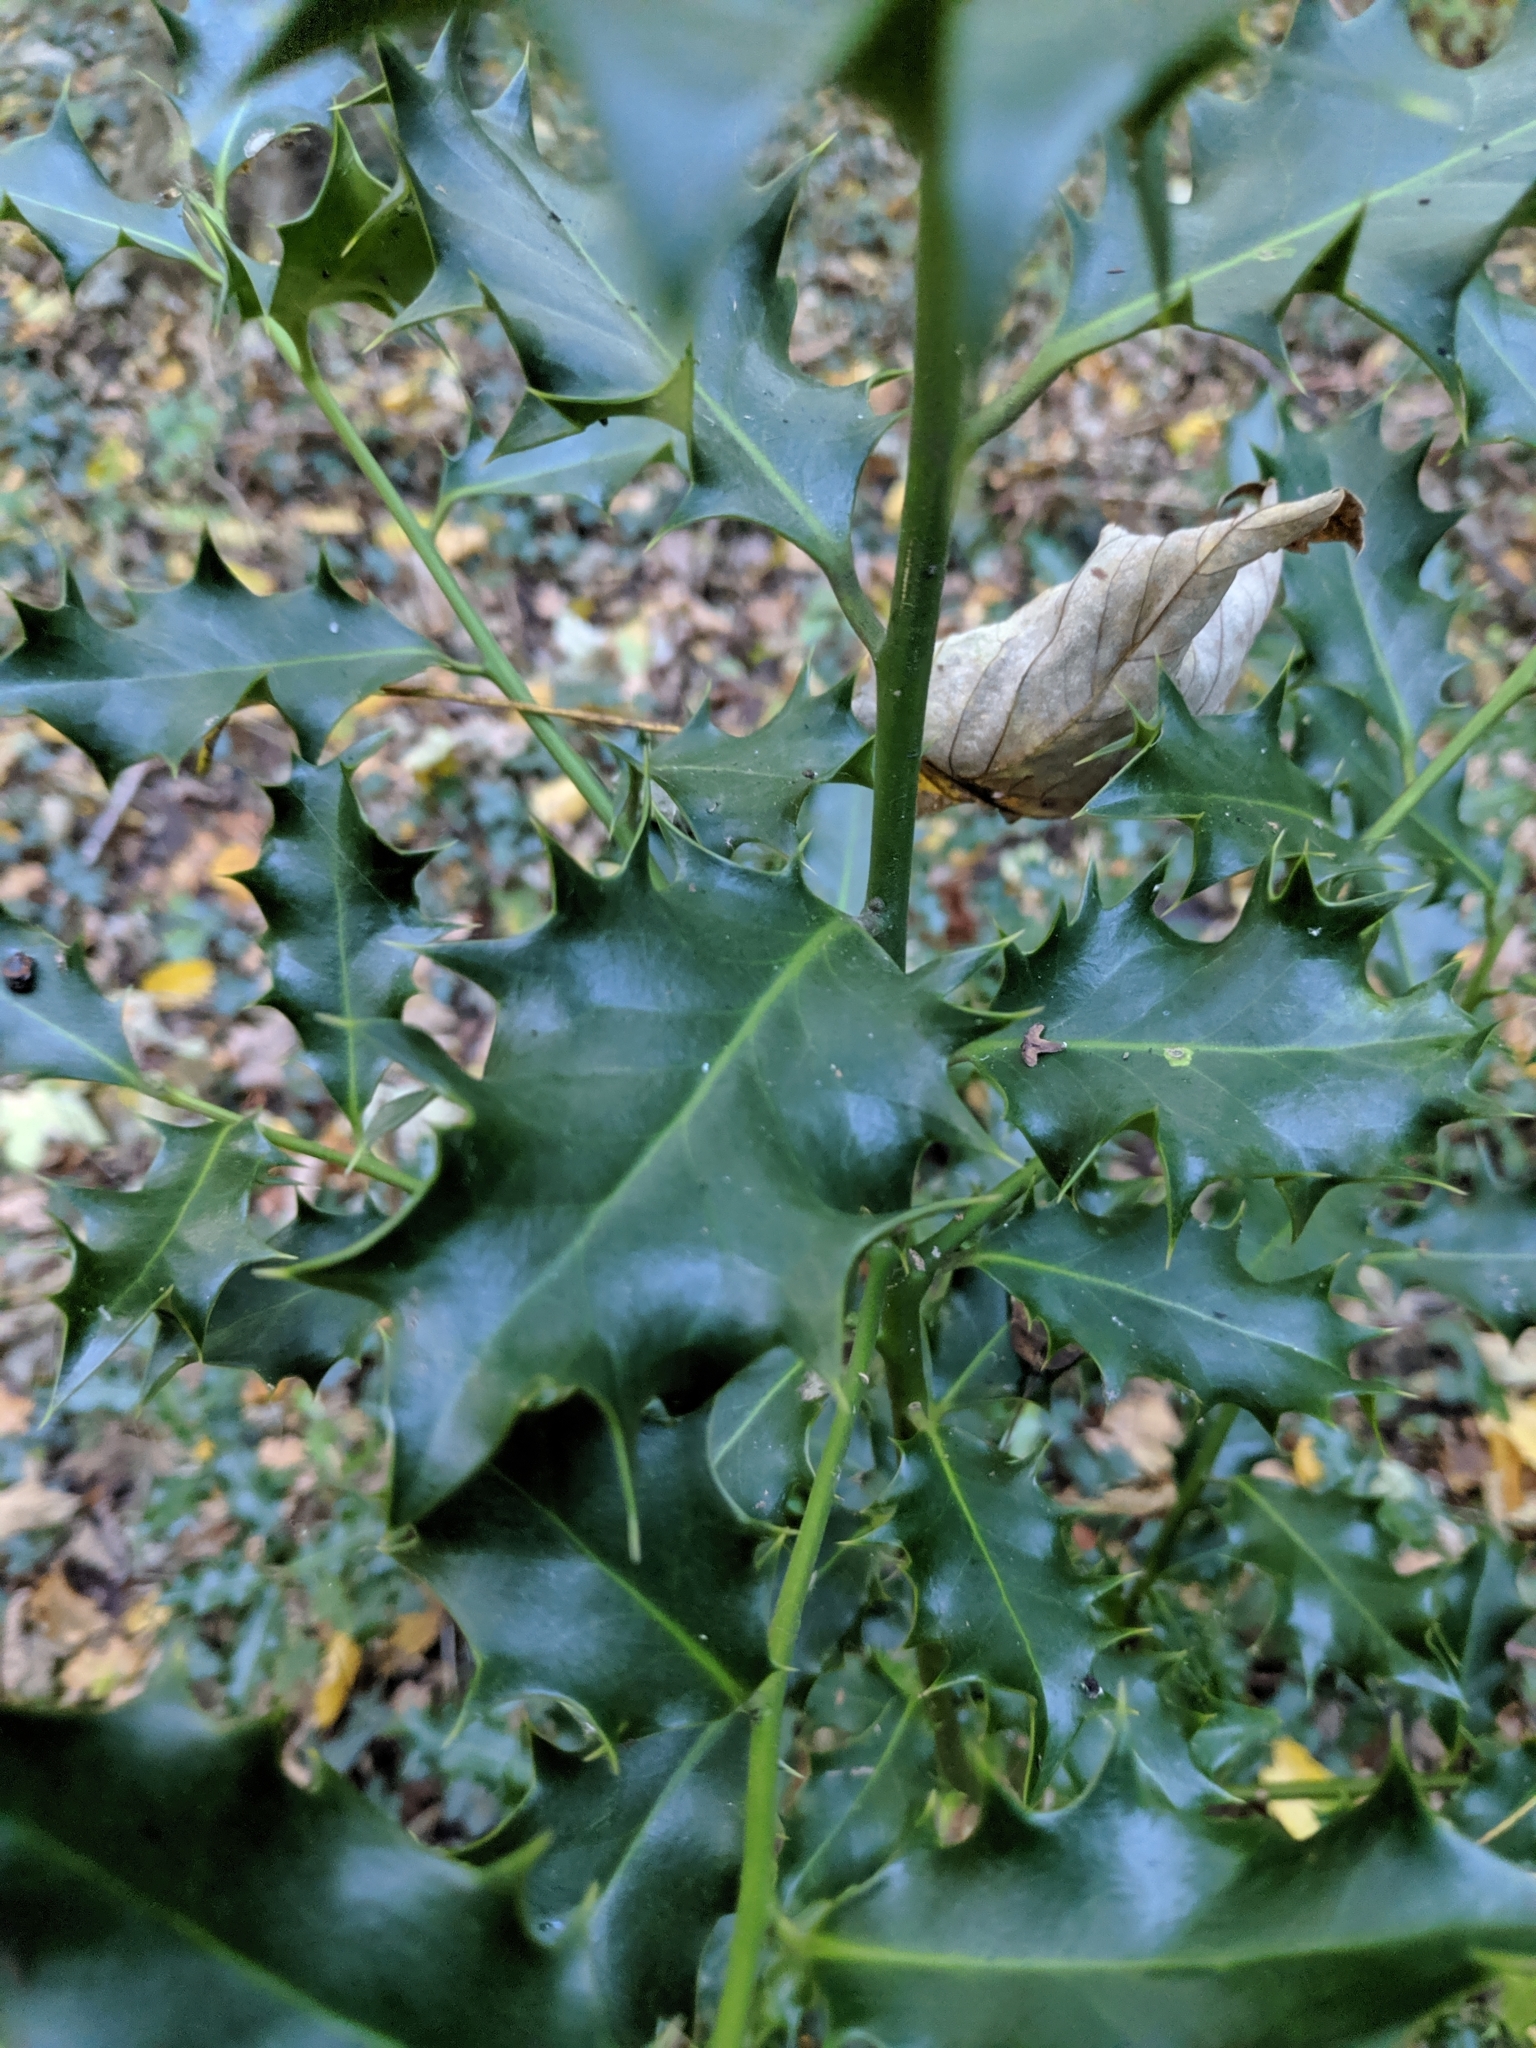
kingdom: Plantae
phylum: Tracheophyta
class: Magnoliopsida
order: Aquifoliales
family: Aquifoliaceae
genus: Ilex
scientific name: Ilex aquifolium
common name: English holly
